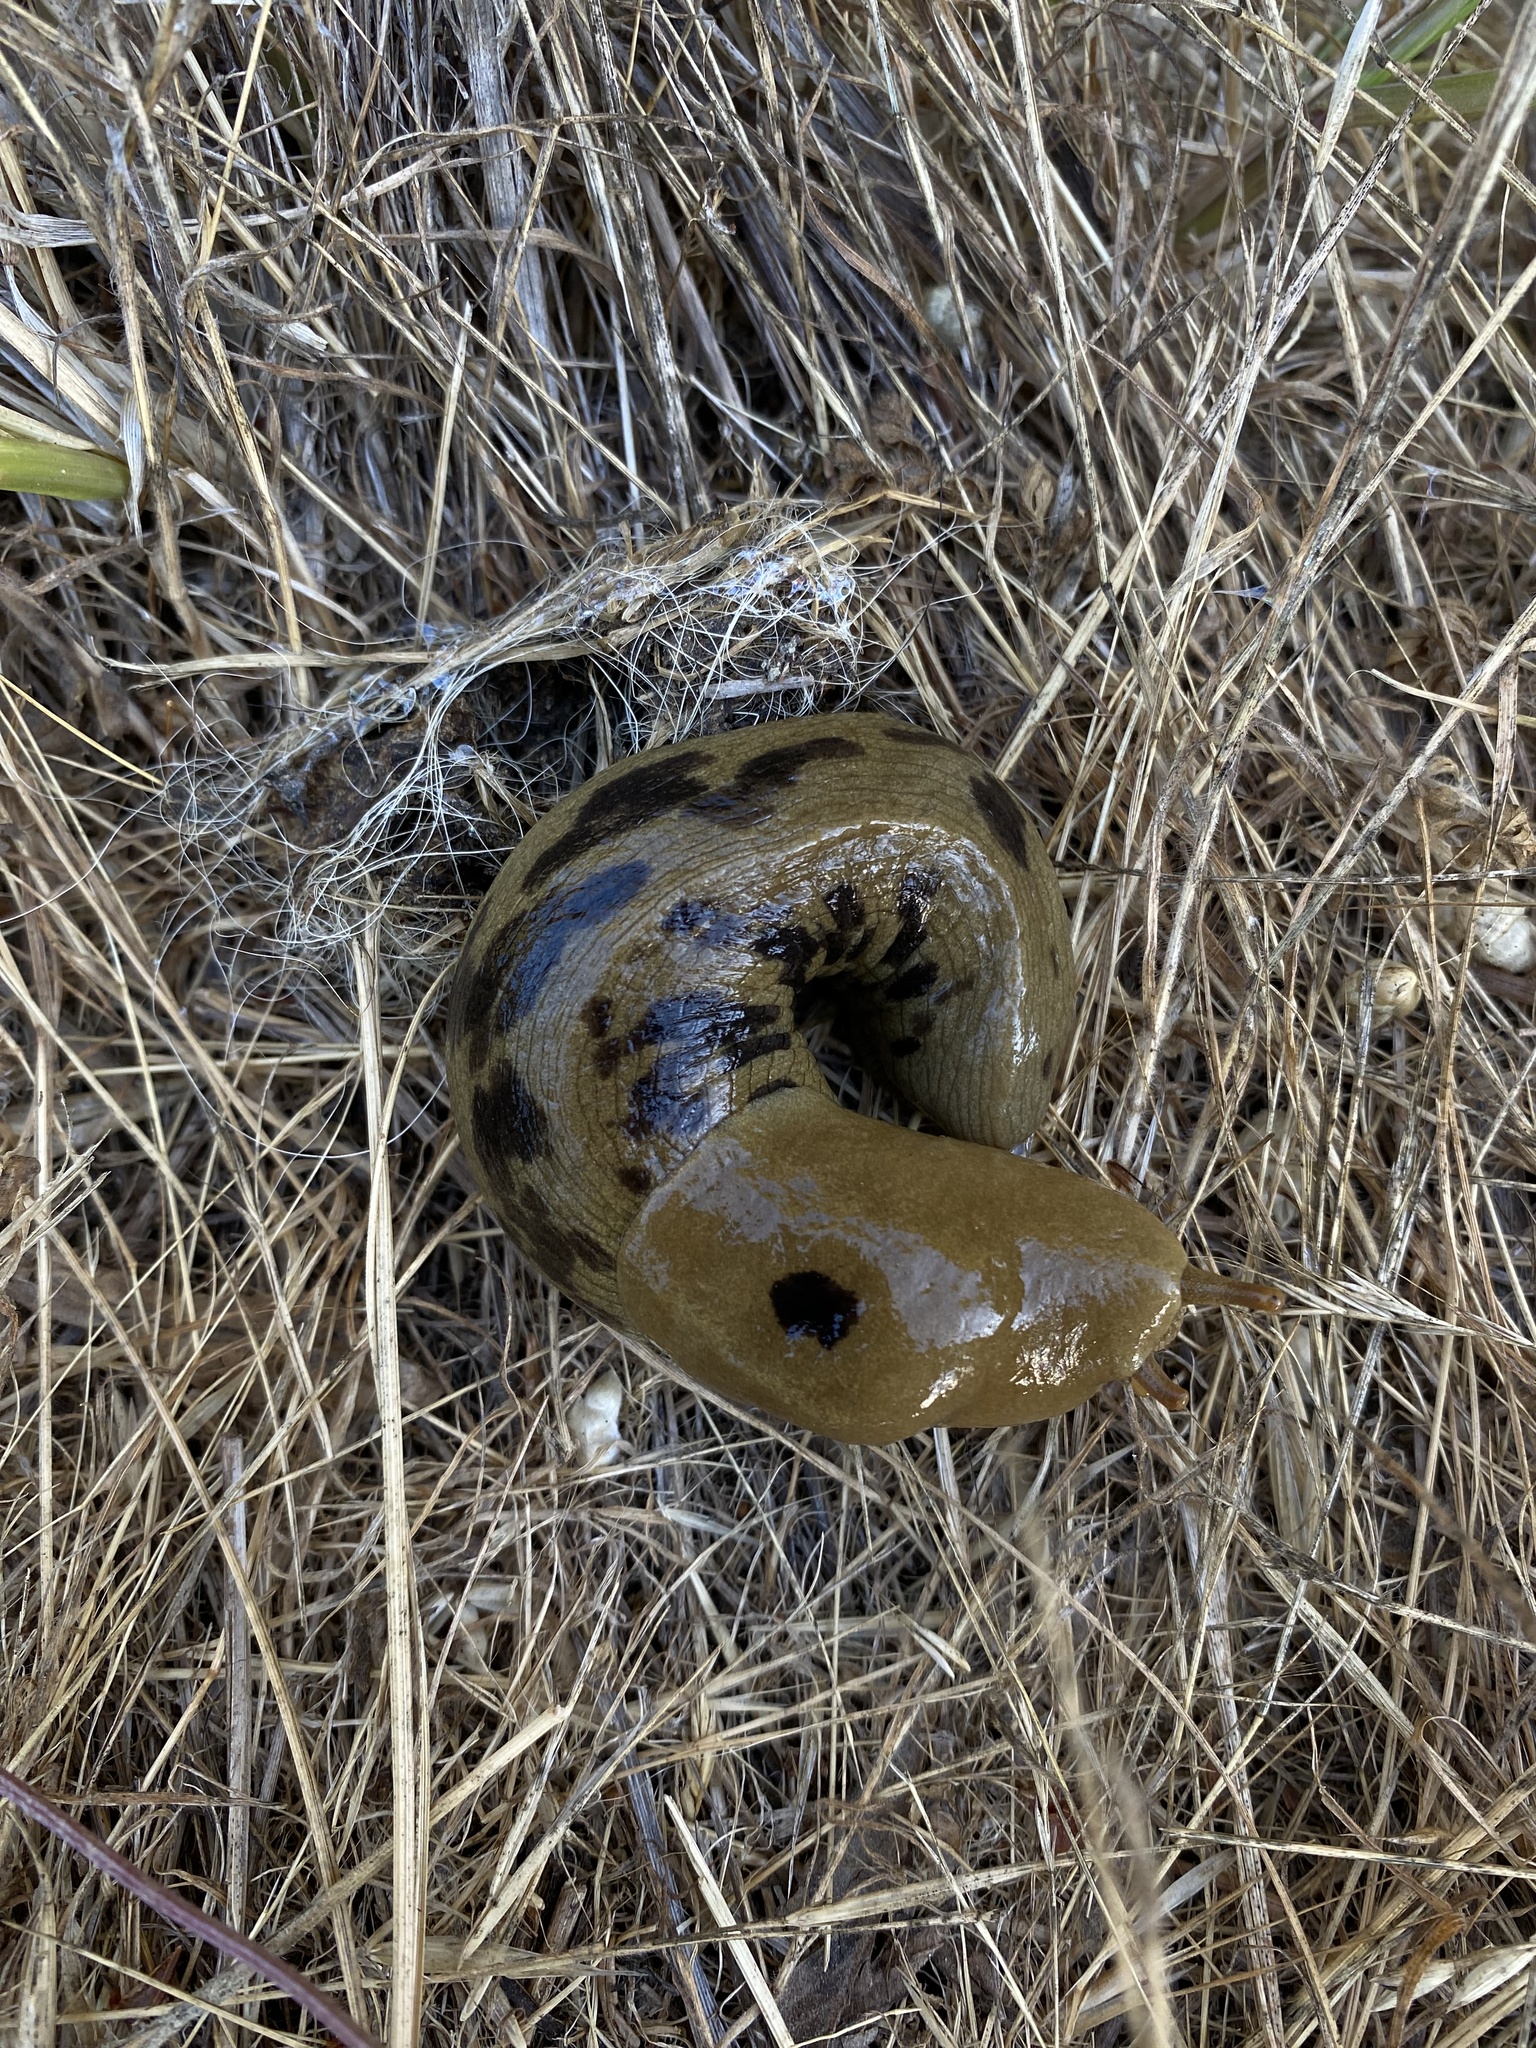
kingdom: Animalia
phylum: Mollusca
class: Gastropoda
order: Stylommatophora
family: Ariolimacidae
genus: Ariolimax
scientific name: Ariolimax columbianus
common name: Pacific banana slug
